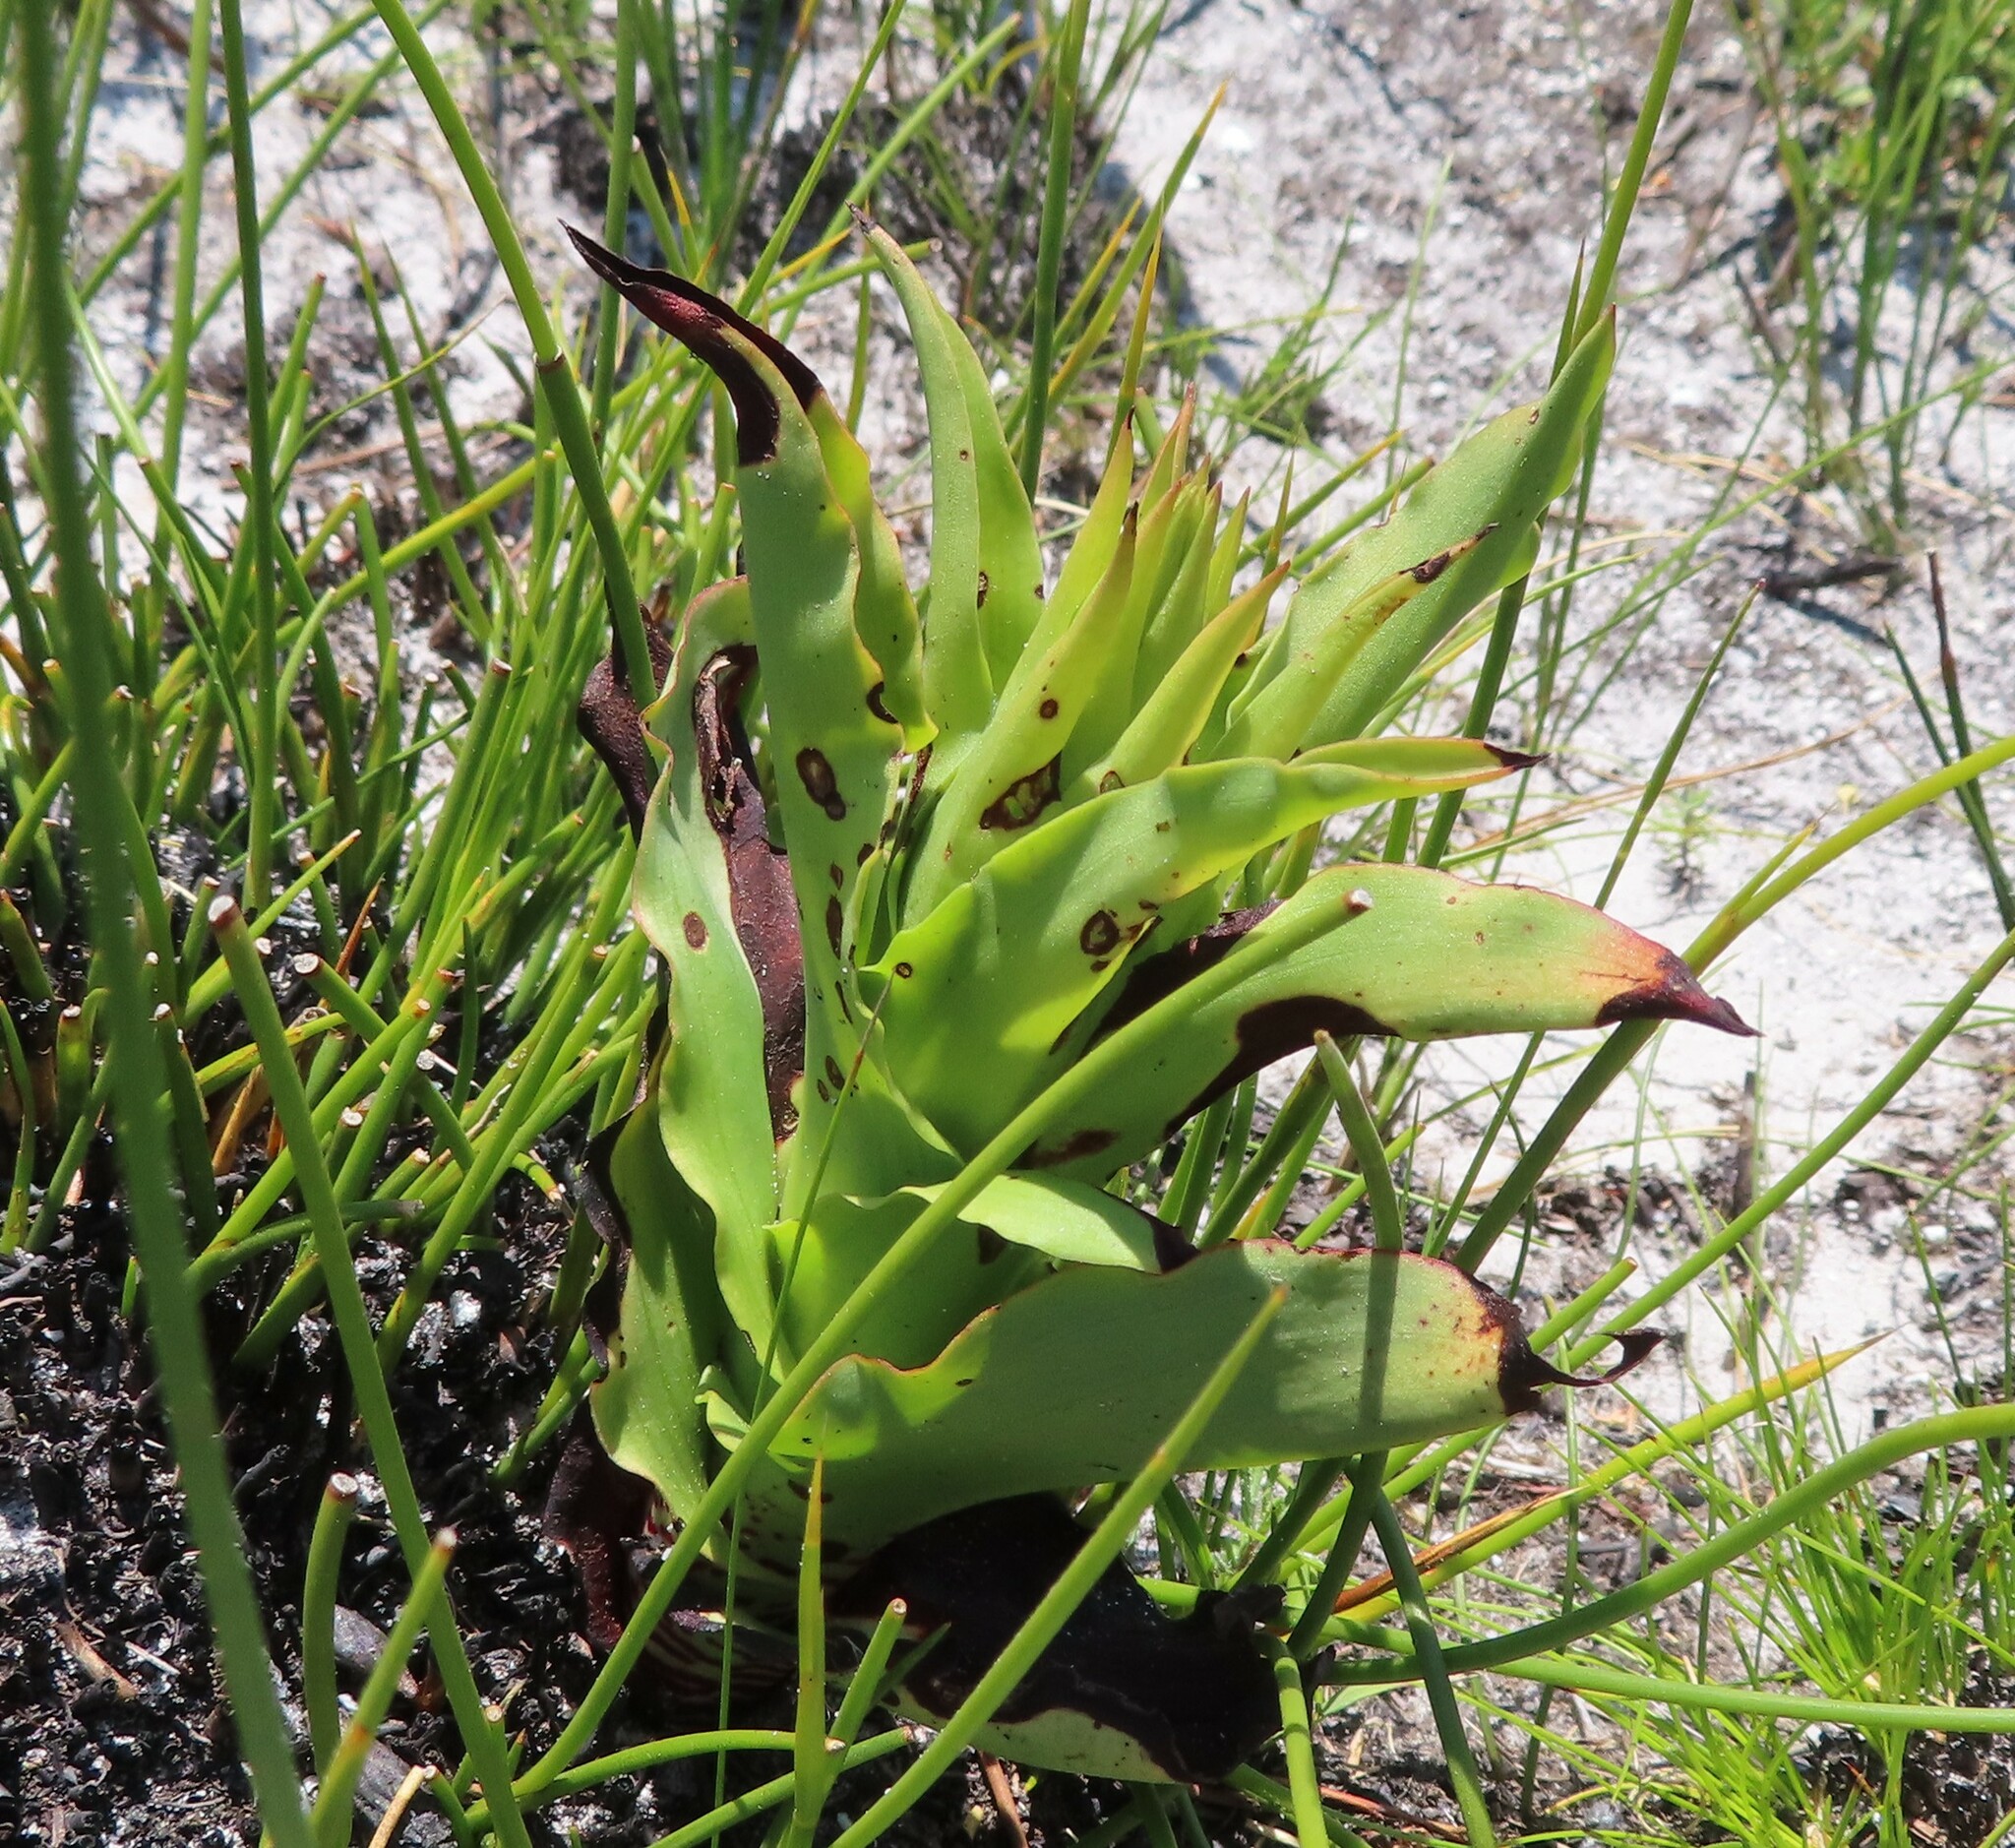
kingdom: Plantae
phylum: Tracheophyta
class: Liliopsida
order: Asparagales
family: Orchidaceae
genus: Disa
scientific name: Disa cornuta
